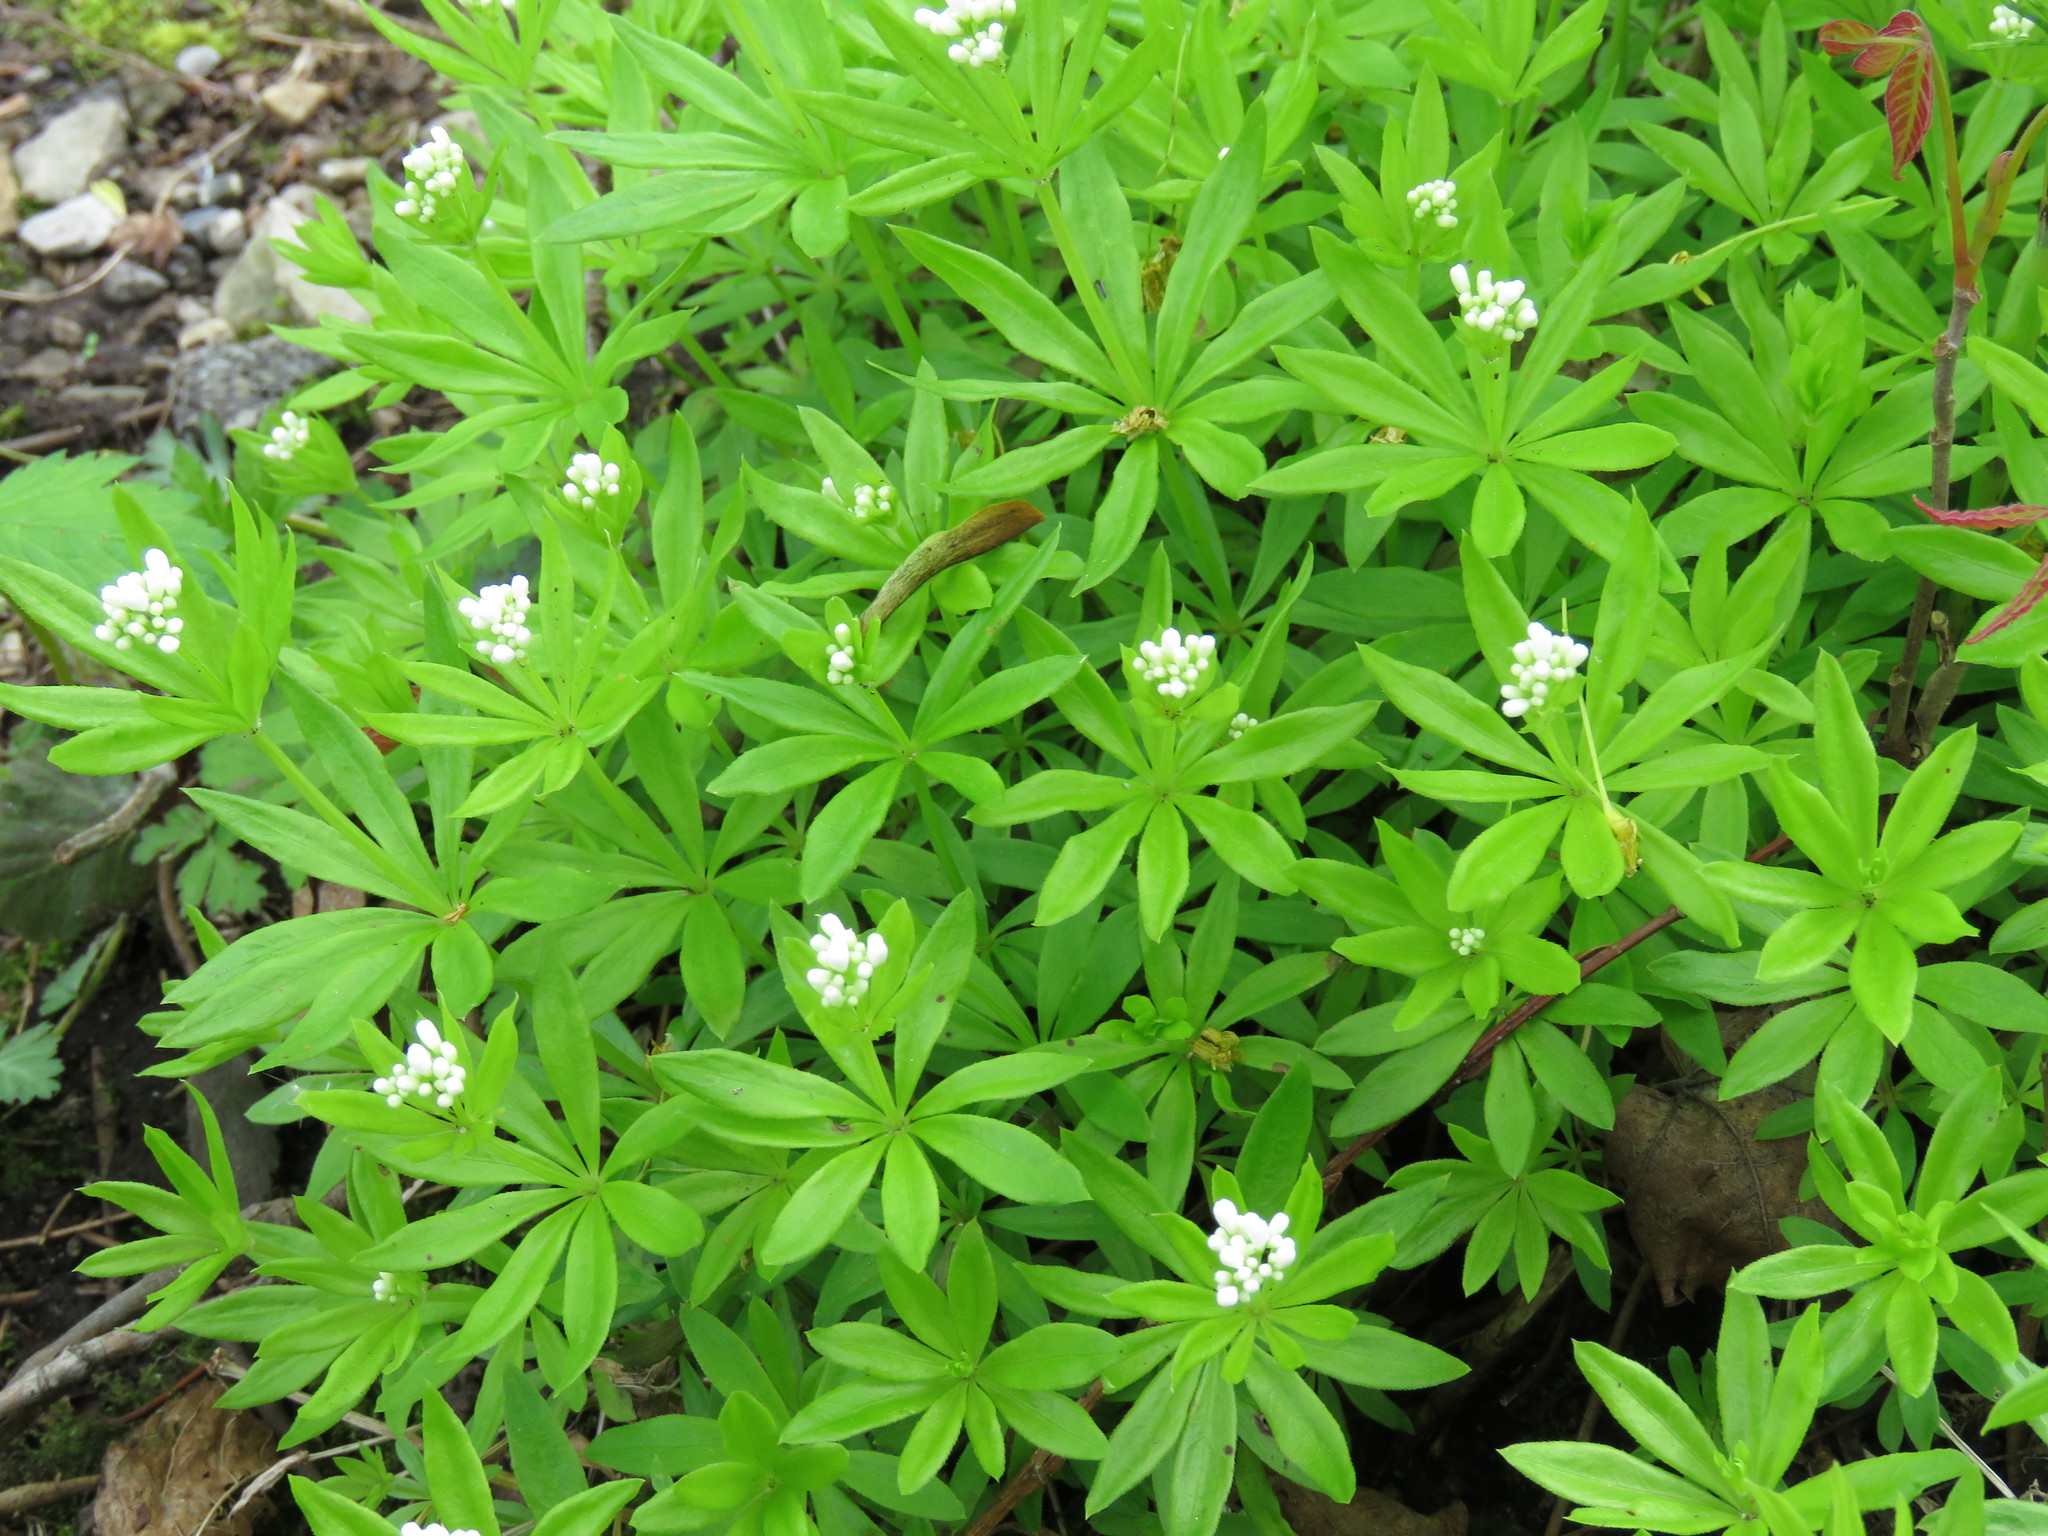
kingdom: Plantae
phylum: Tracheophyta
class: Magnoliopsida
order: Gentianales
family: Rubiaceae
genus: Galium
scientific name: Galium odoratum
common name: Sweet woodruff
